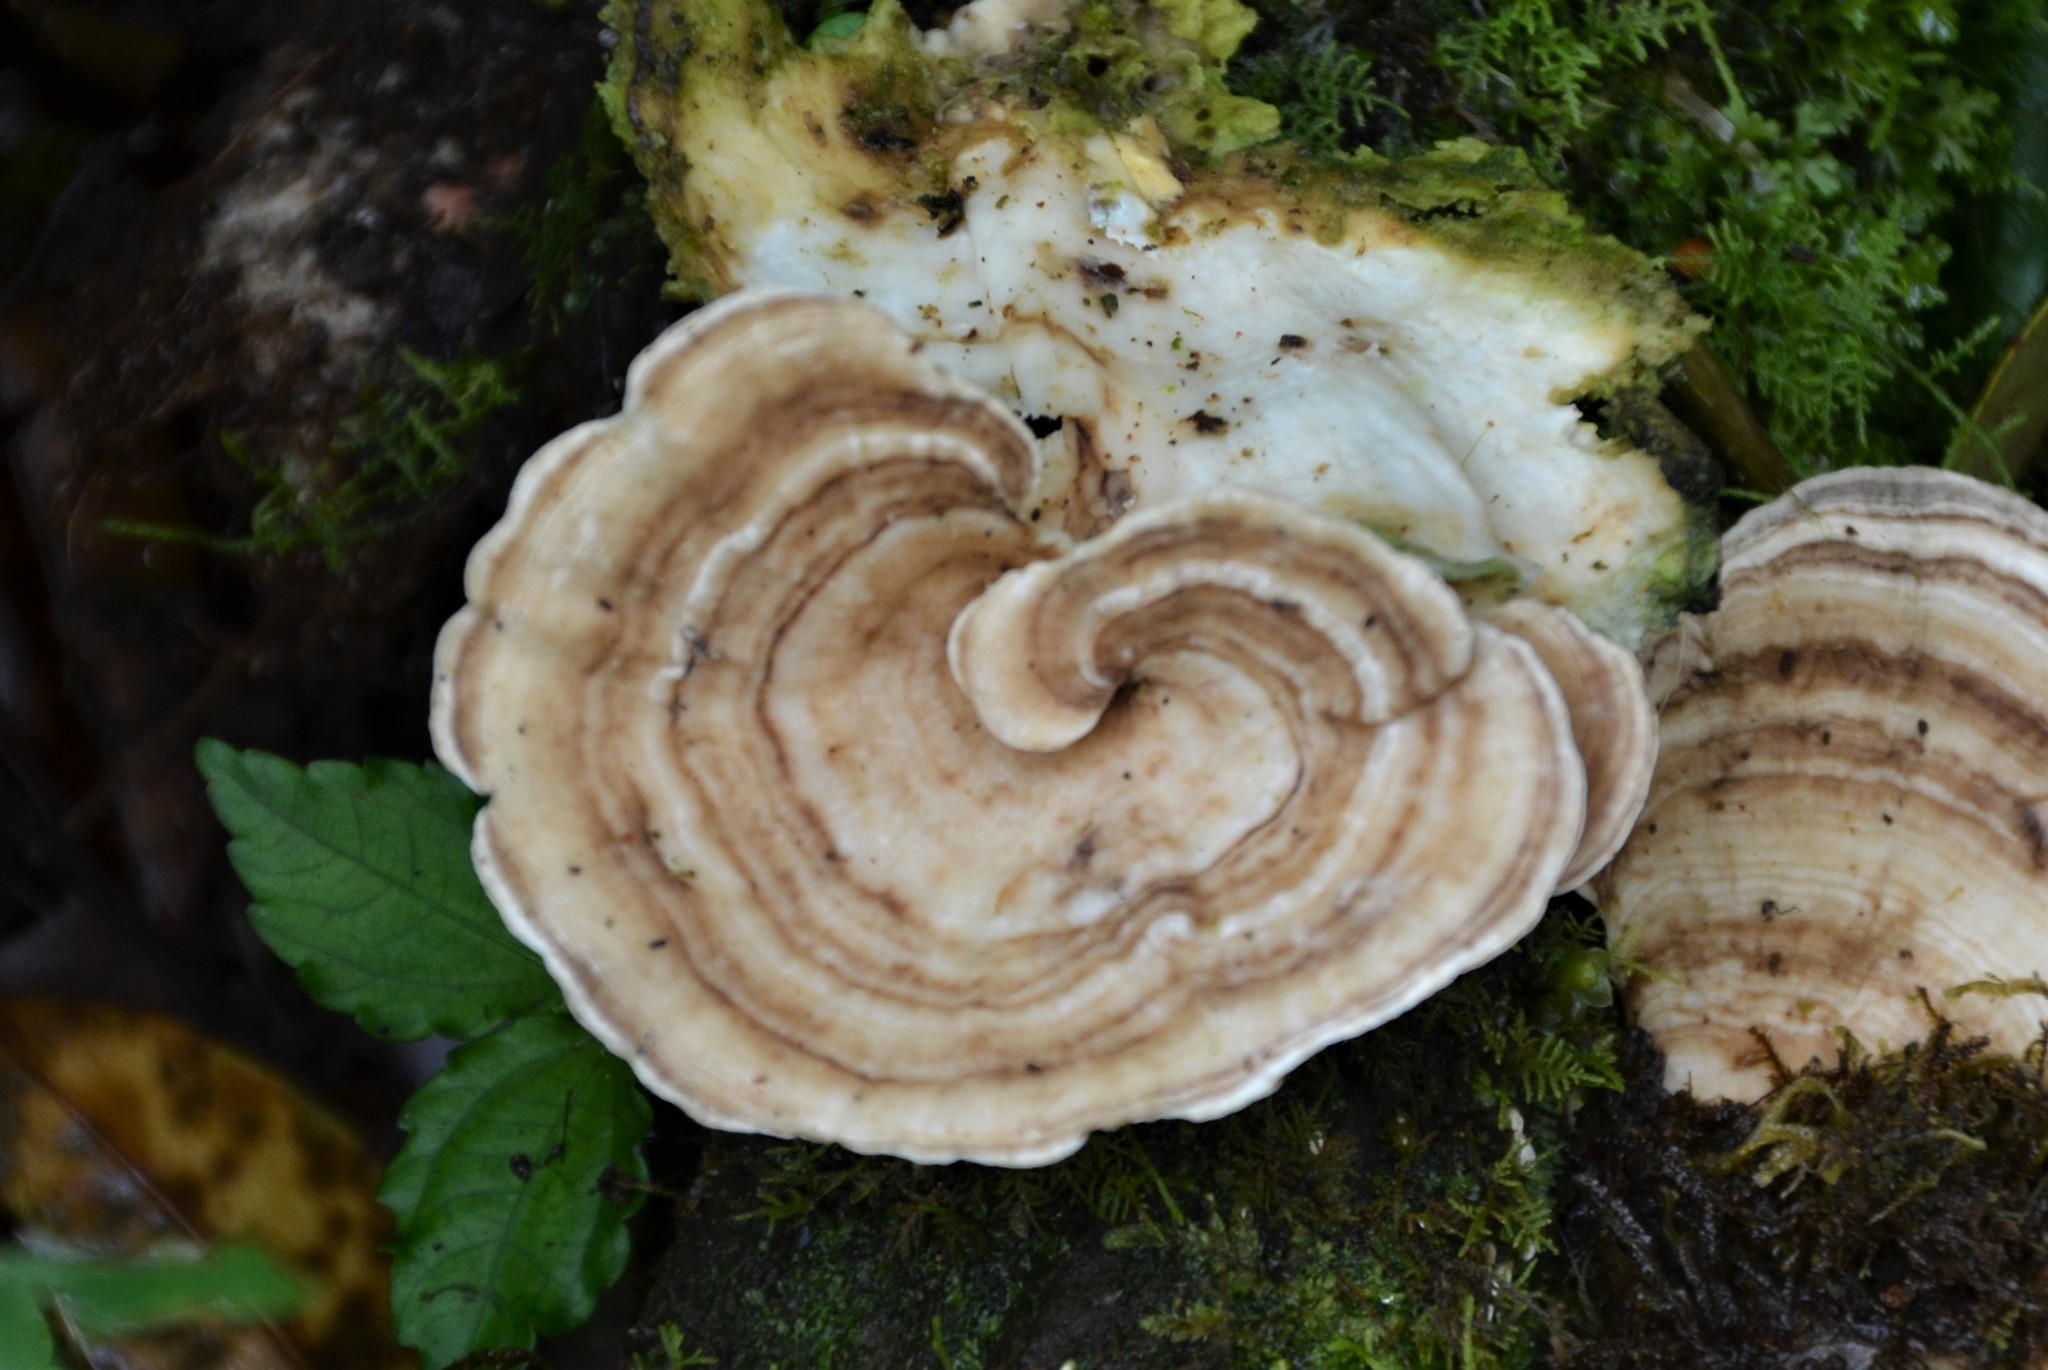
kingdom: Fungi
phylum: Basidiomycota
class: Agaricomycetes
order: Polyporales
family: Polyporaceae
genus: Cubamyces
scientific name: Cubamyces menziesii
